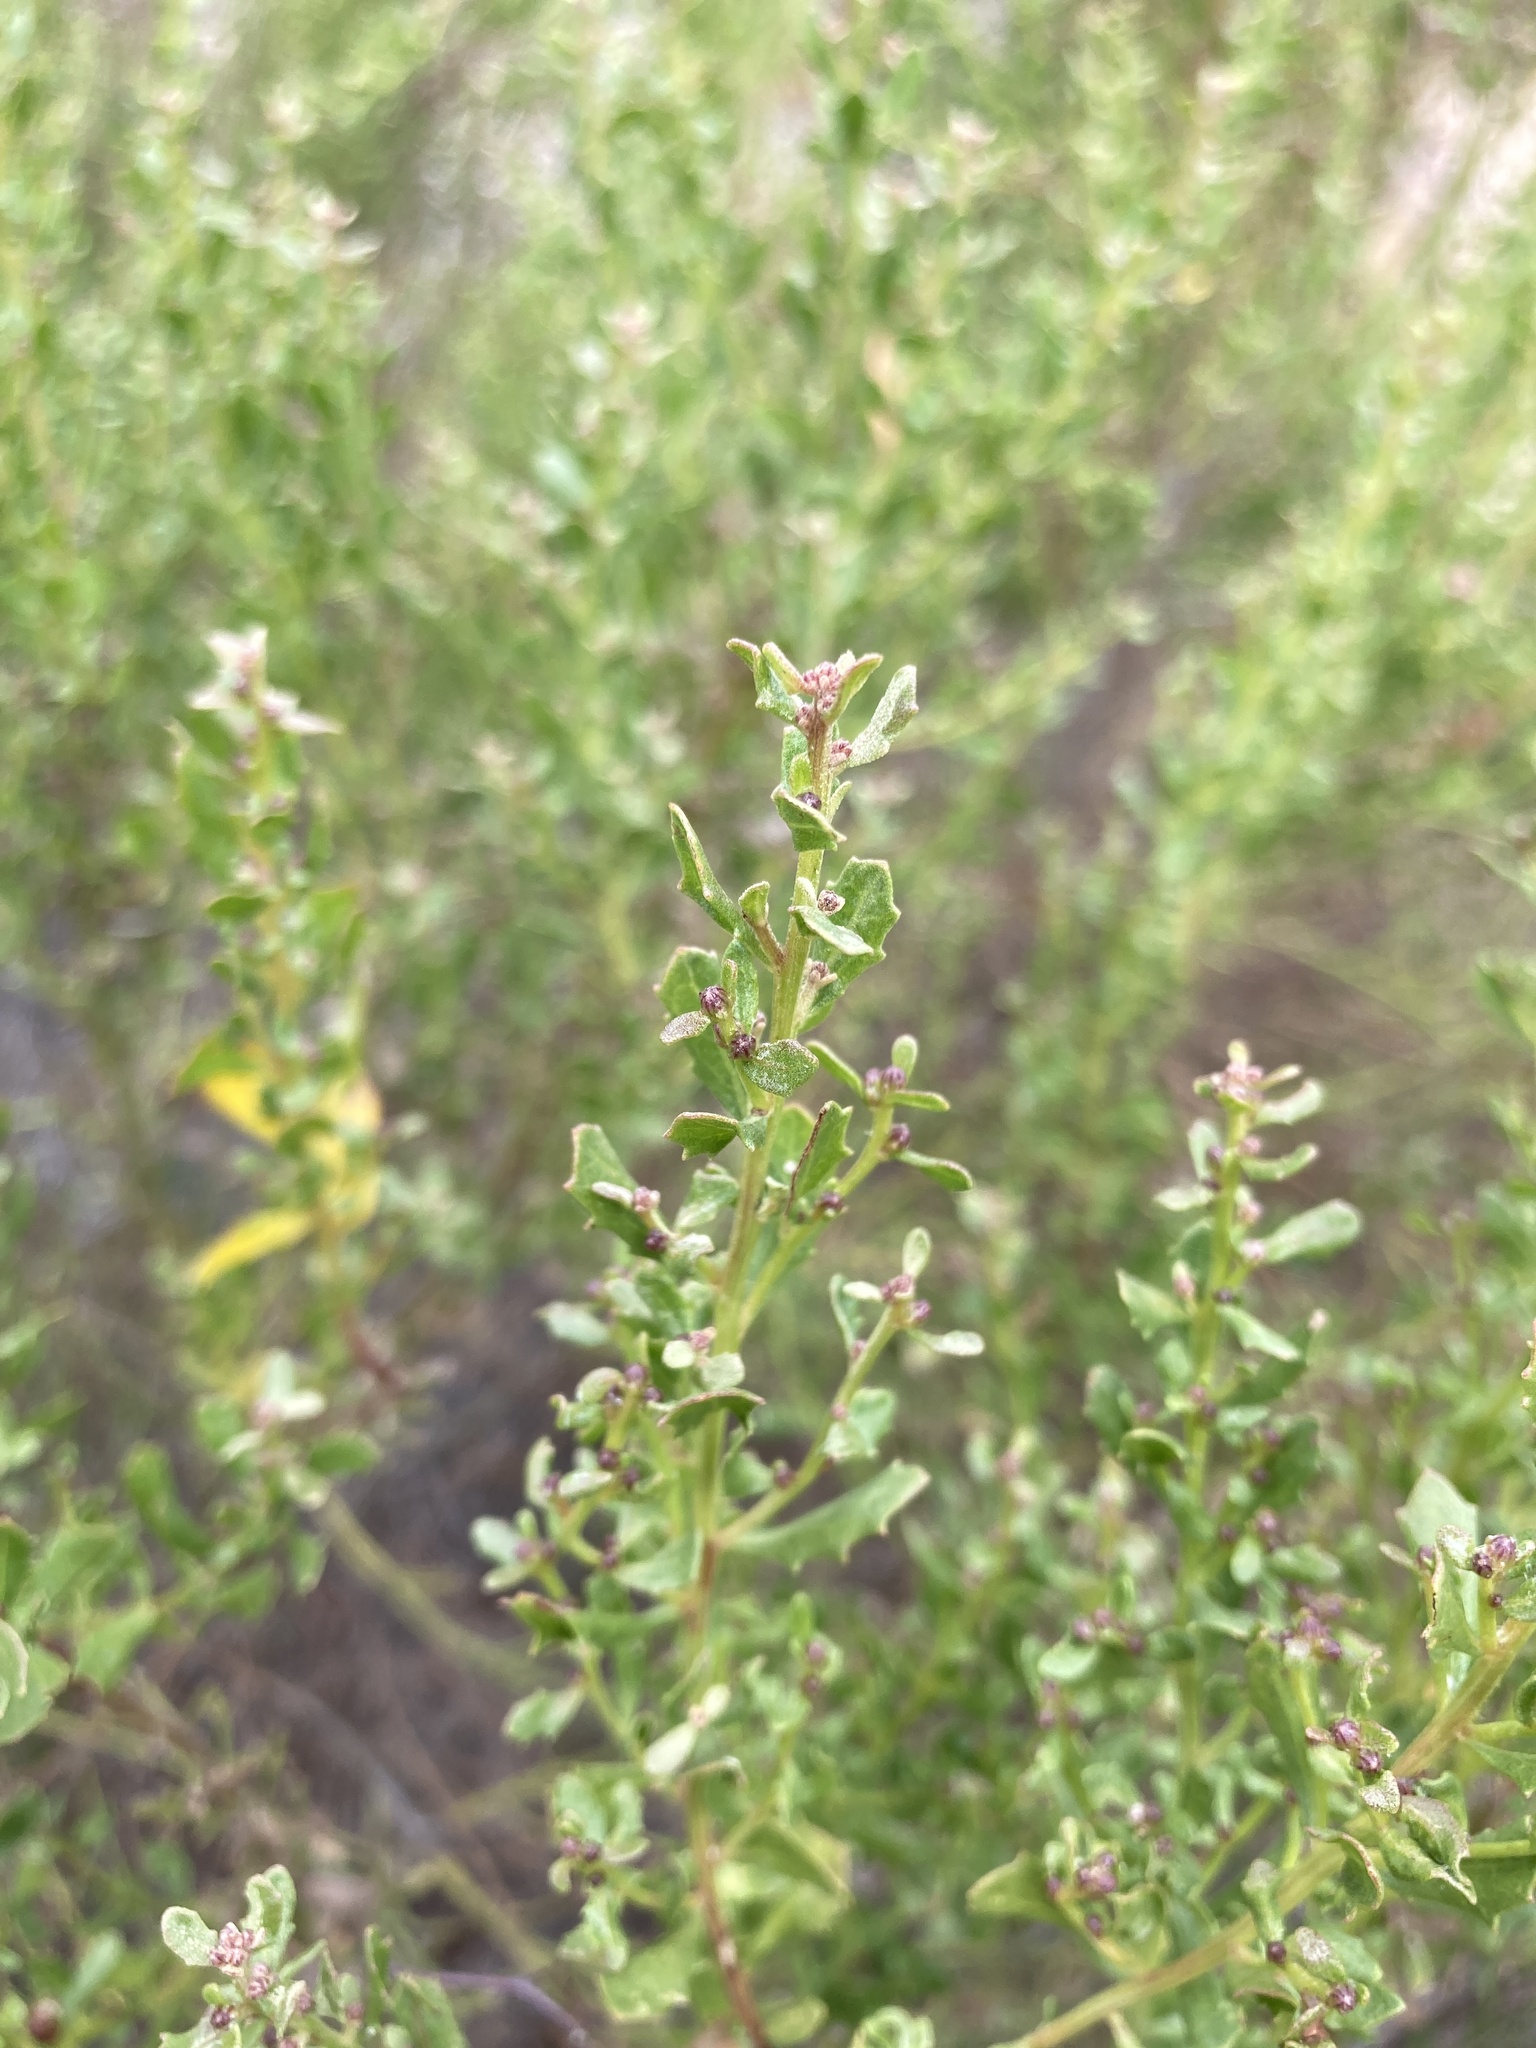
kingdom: Plantae
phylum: Tracheophyta
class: Magnoliopsida
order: Asterales
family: Asteraceae
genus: Baccharis
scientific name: Baccharis pilularis
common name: Coyotebrush
